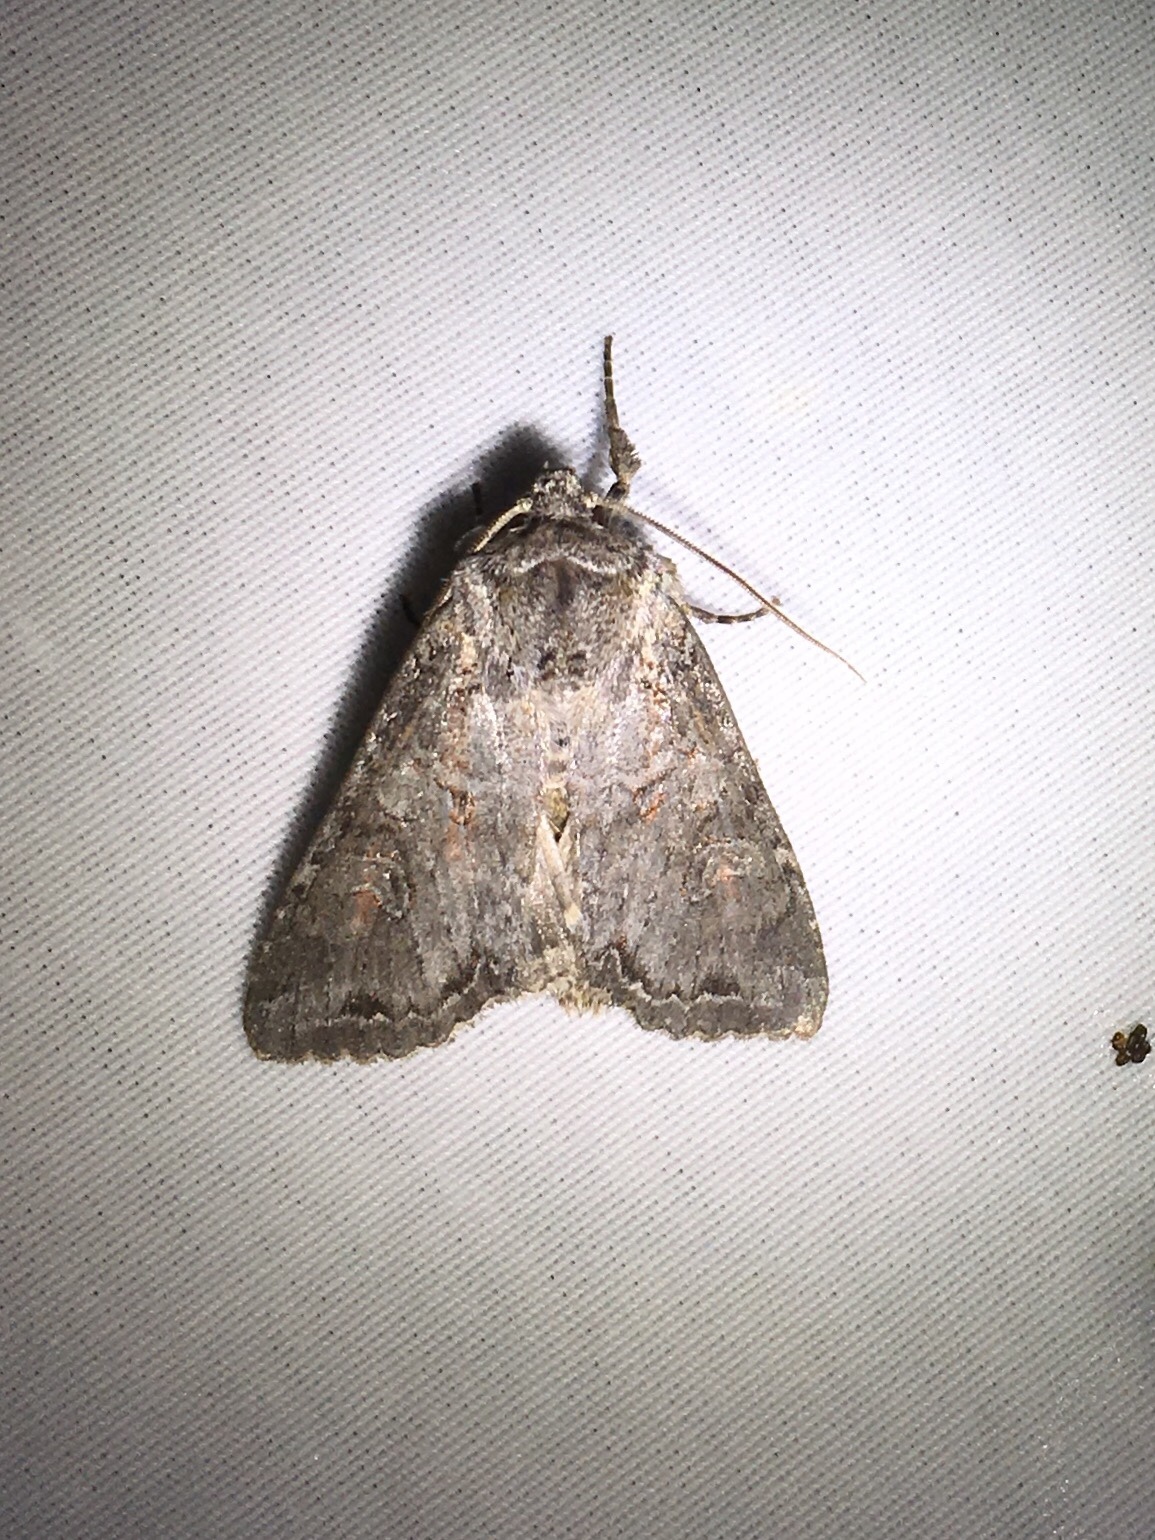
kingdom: Animalia
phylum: Arthropoda
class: Insecta
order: Lepidoptera
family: Noctuidae
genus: Polia
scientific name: Polia purpurissata
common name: Purple arches moth
